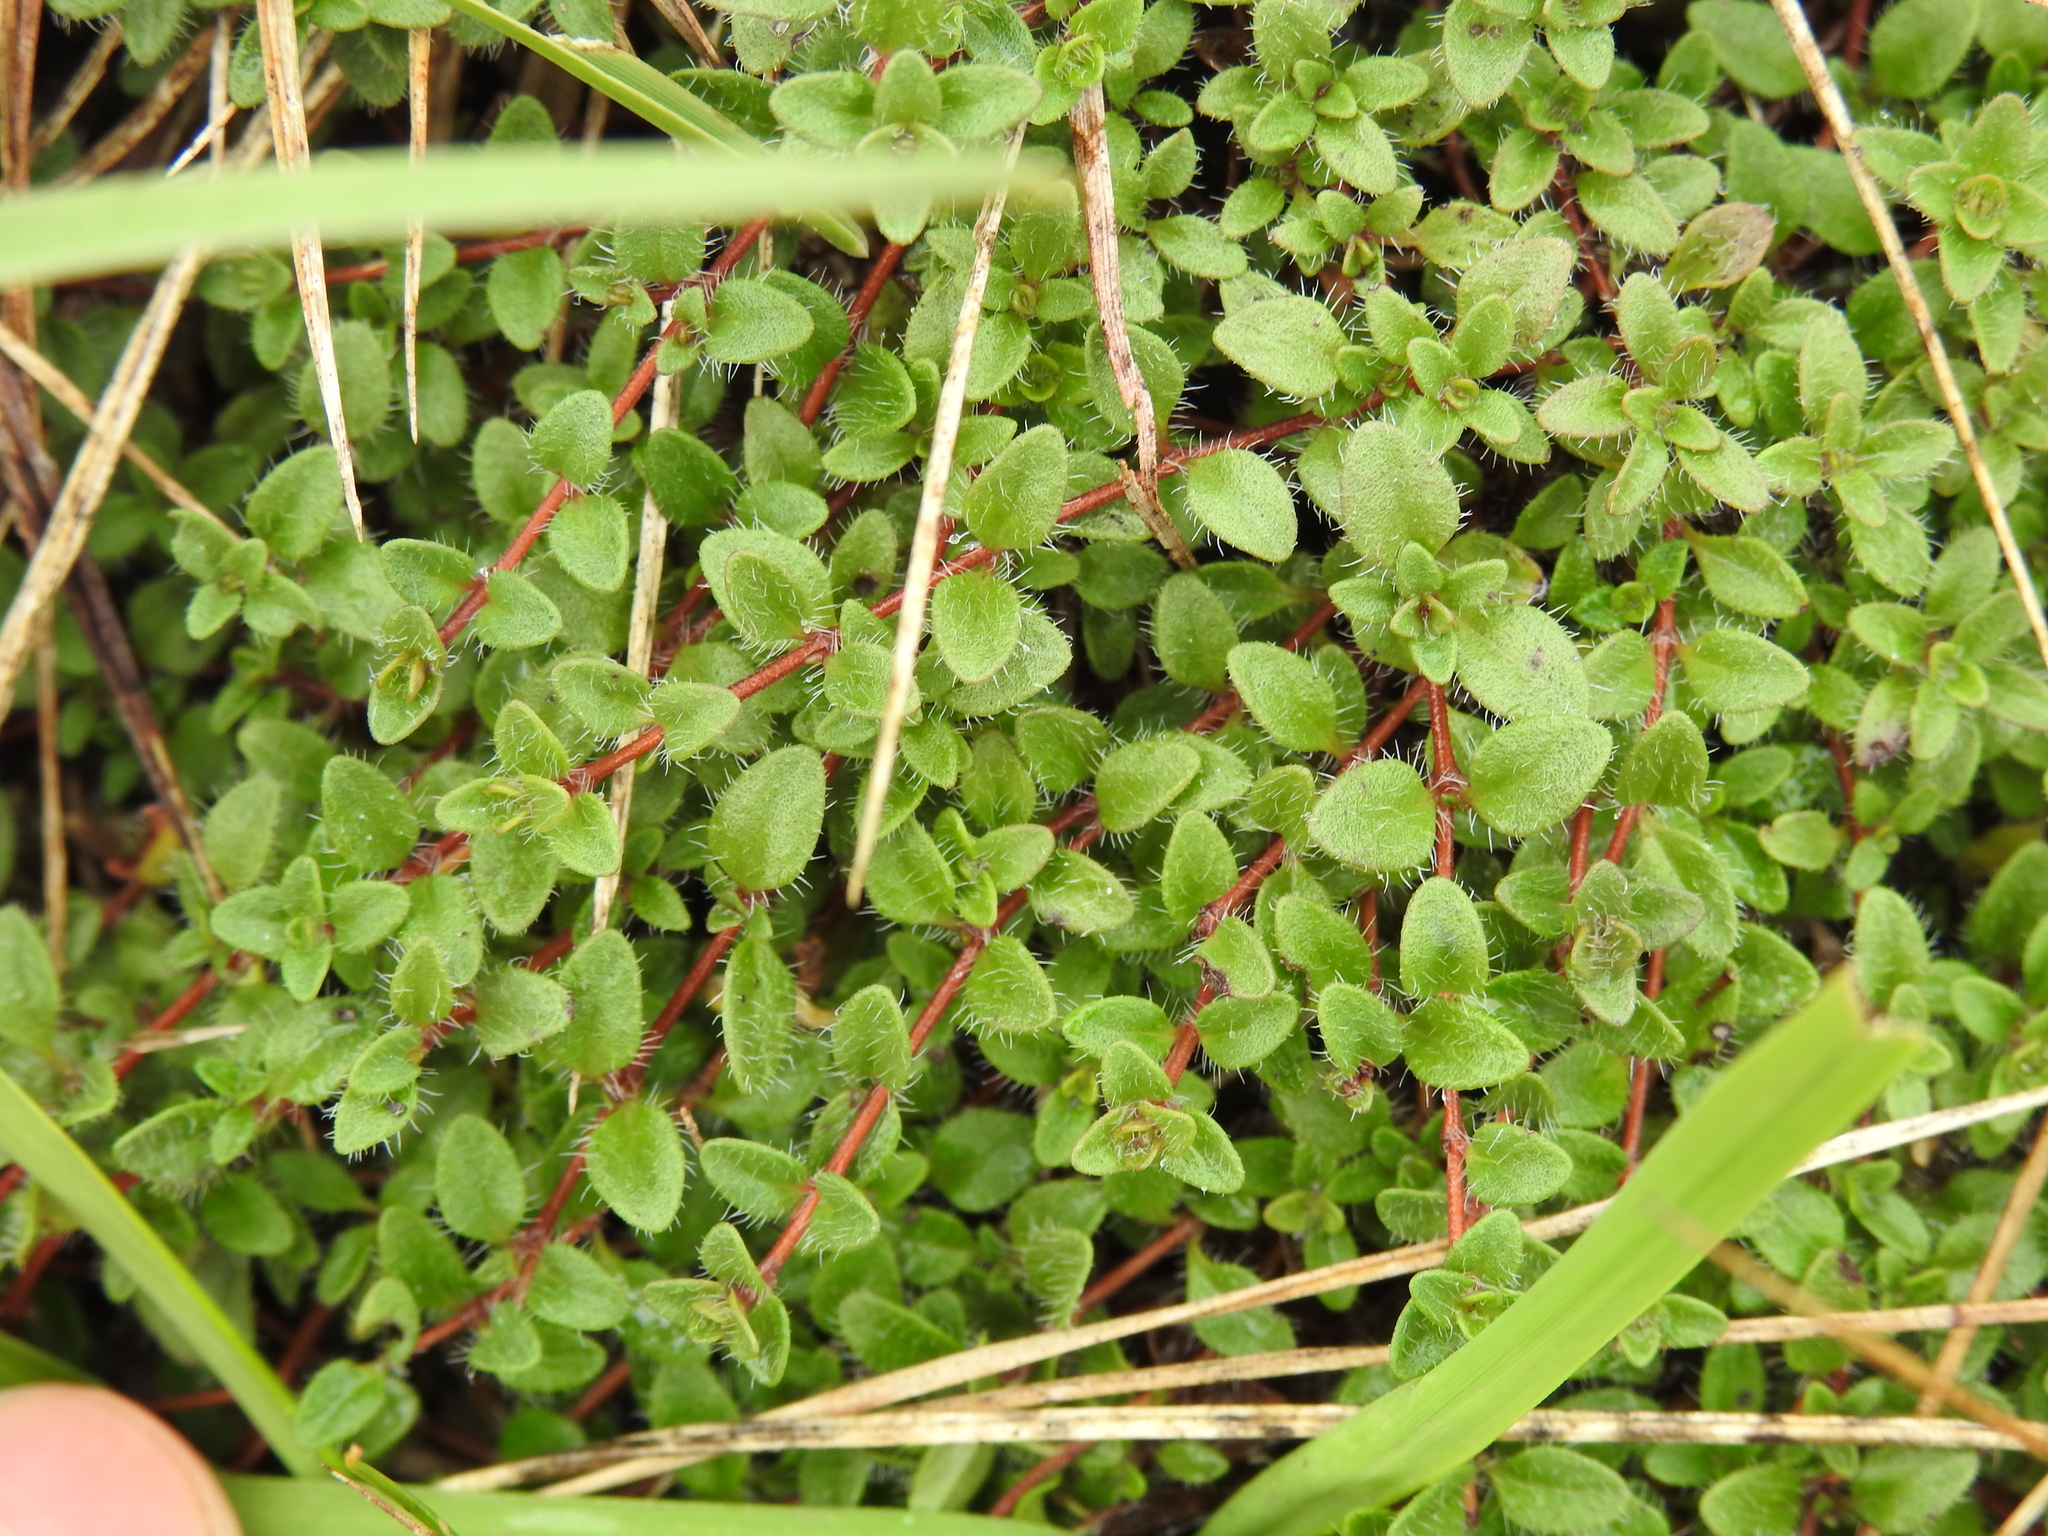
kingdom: Plantae
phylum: Tracheophyta
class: Magnoliopsida
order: Lamiales
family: Lamiaceae
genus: Thymus
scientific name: Thymus praecox
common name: Wild thyme
